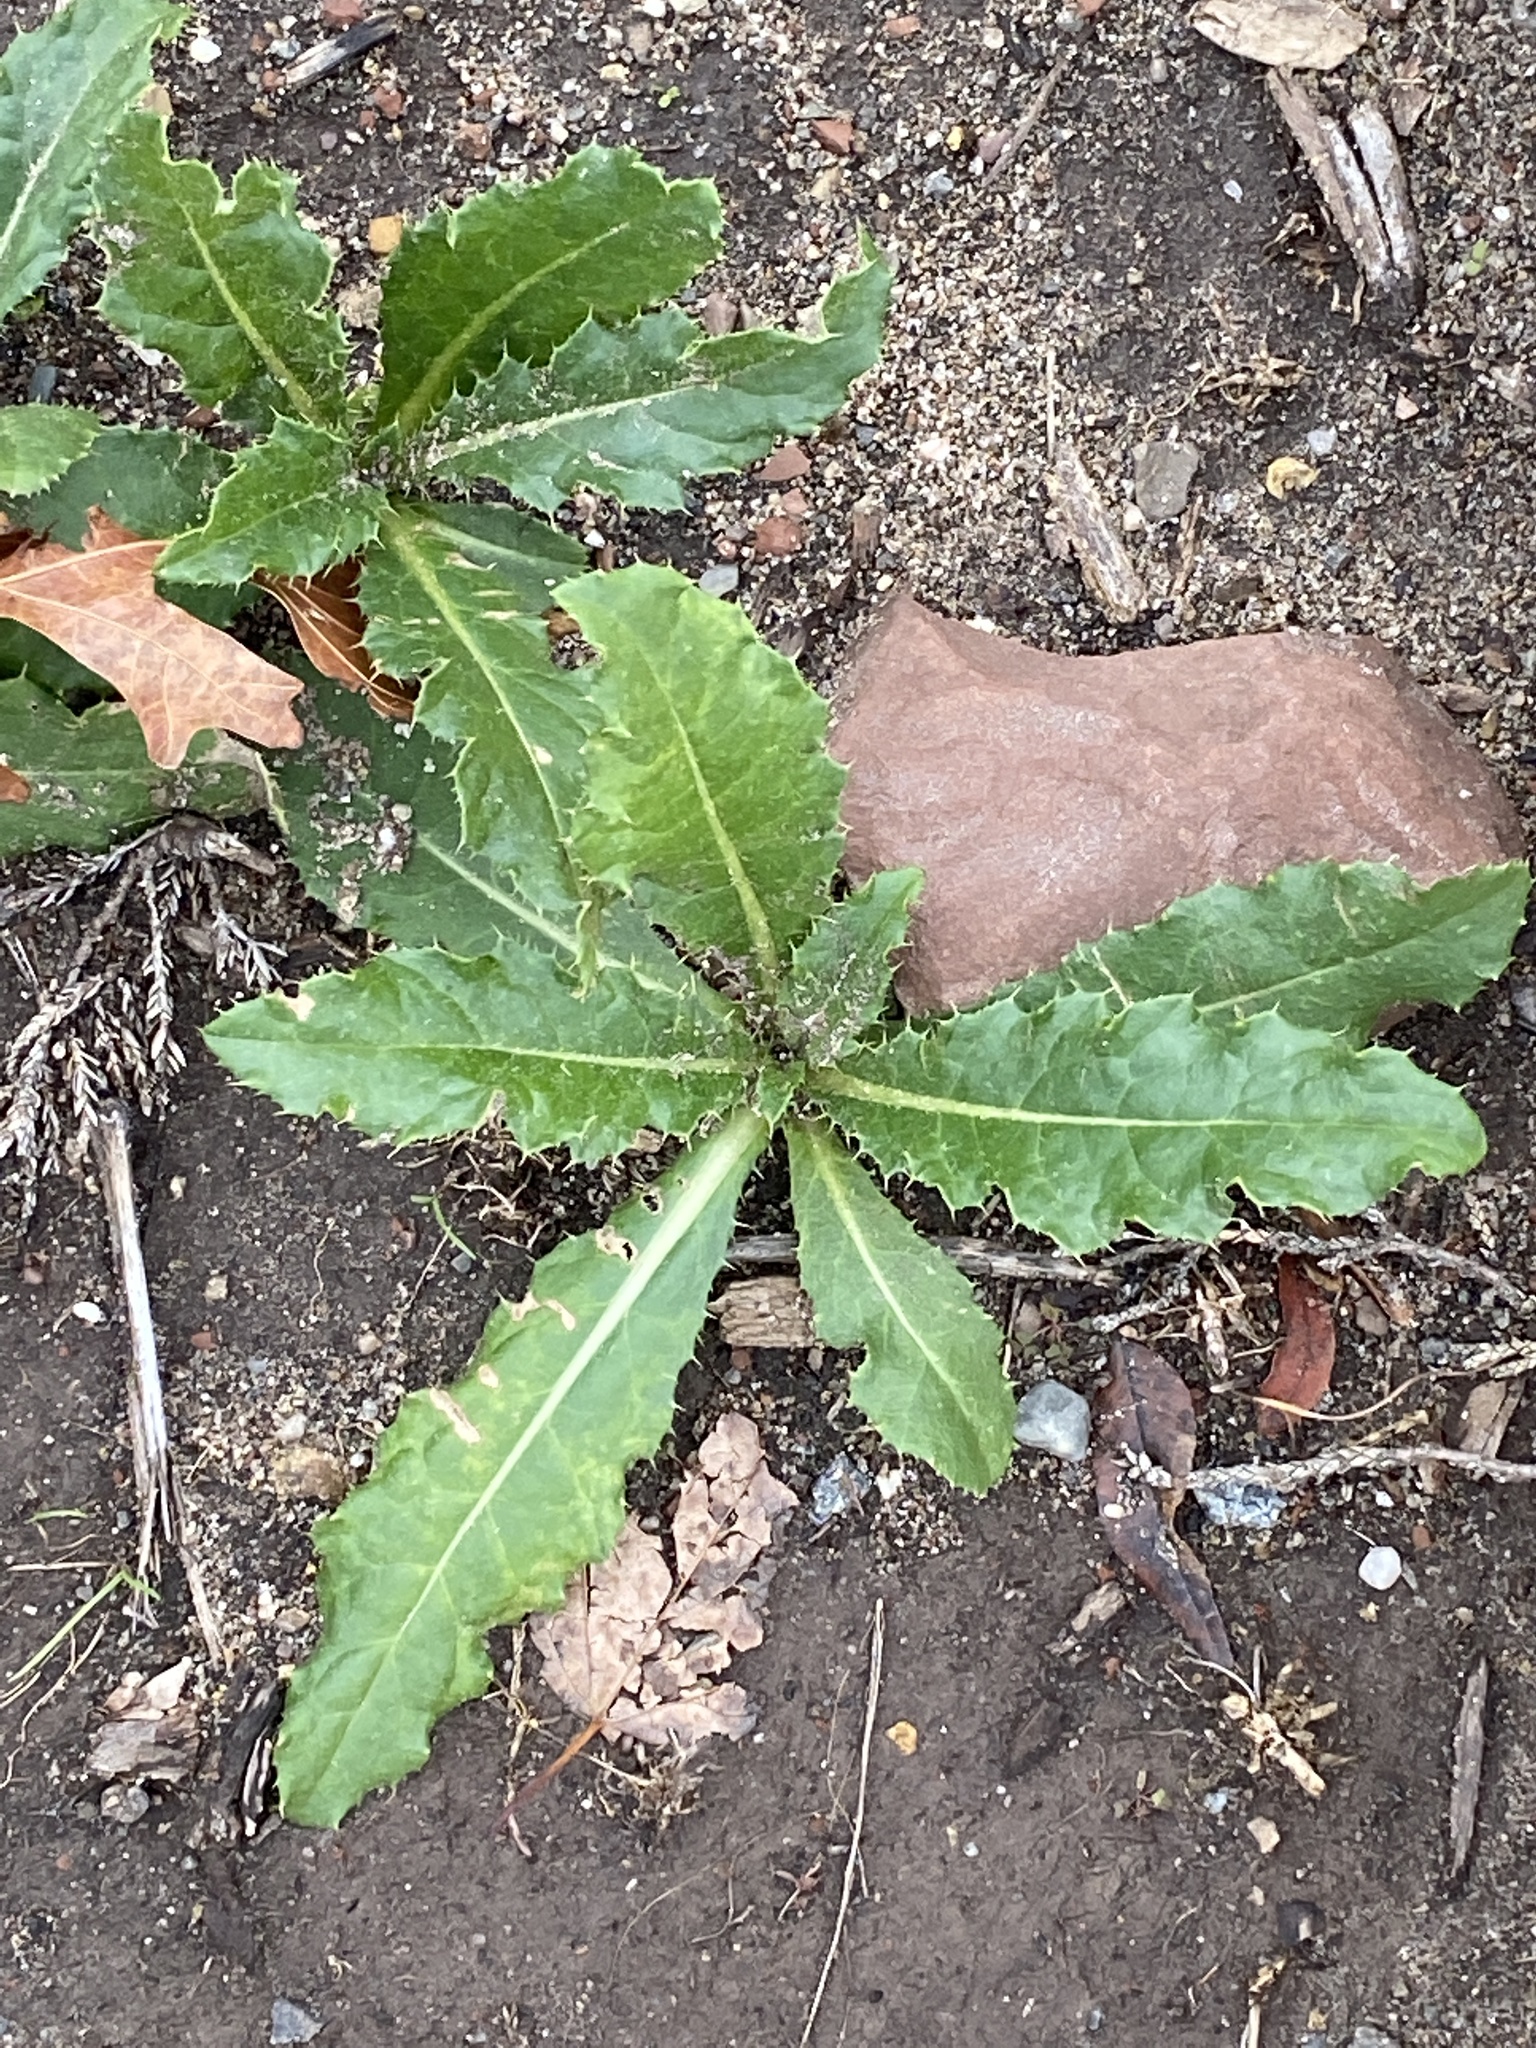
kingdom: Plantae
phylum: Tracheophyta
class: Magnoliopsida
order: Asterales
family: Asteraceae
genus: Cirsium
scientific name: Cirsium arvense
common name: Creeping thistle
